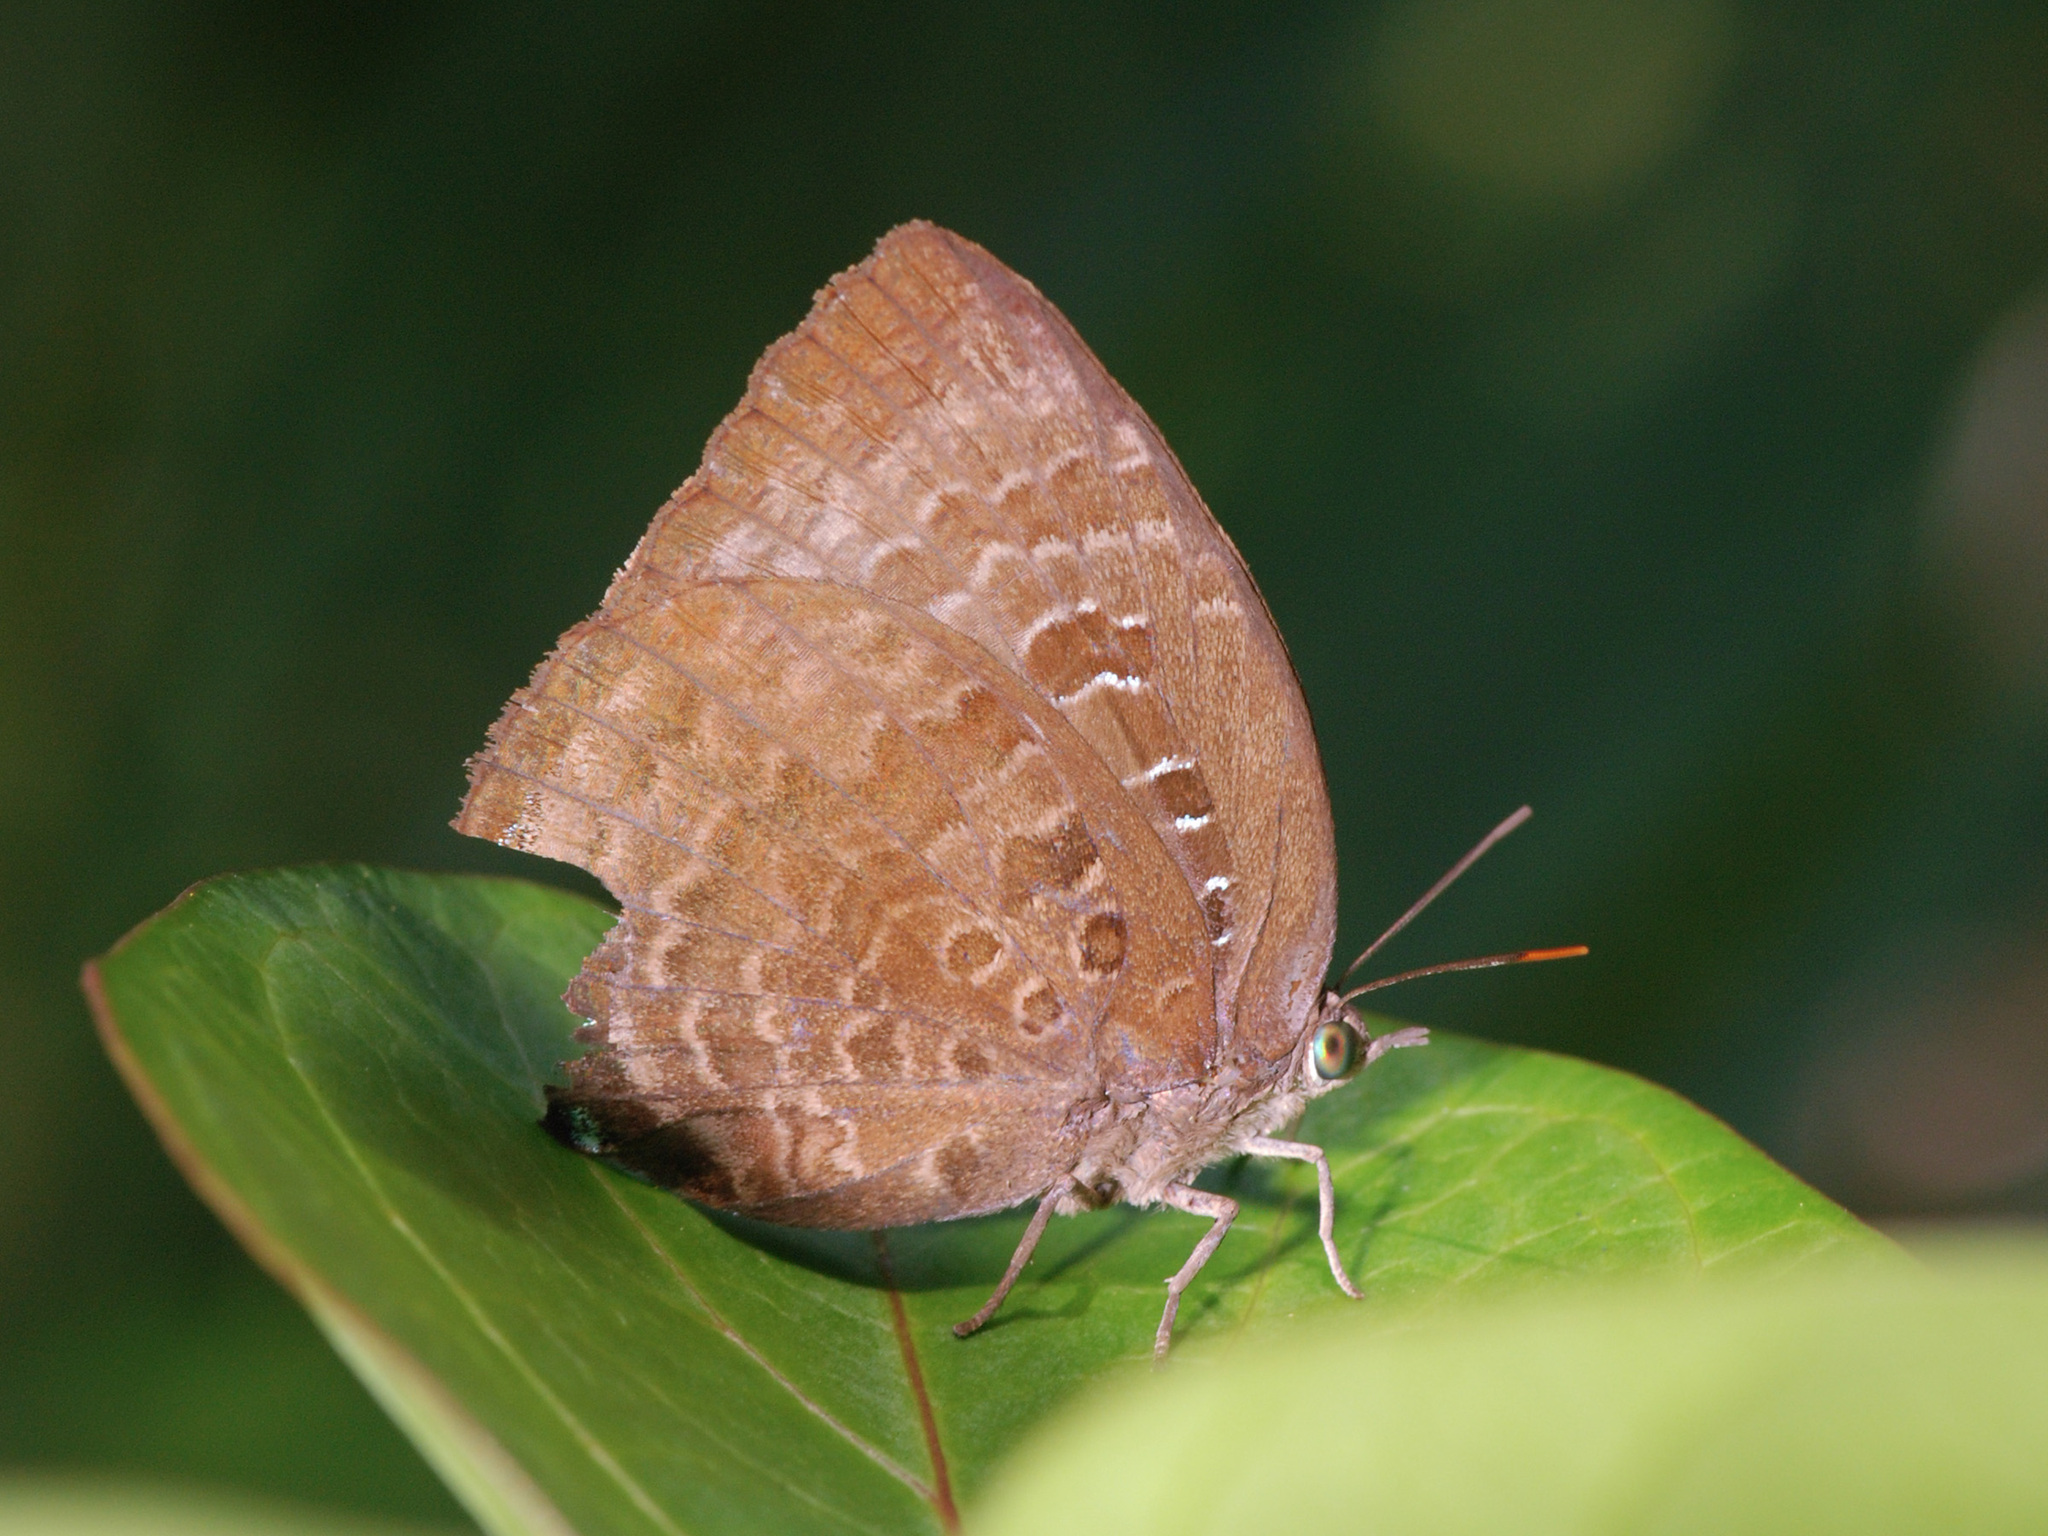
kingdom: Animalia
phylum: Arthropoda
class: Insecta
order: Lepidoptera
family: Lycaenidae
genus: Arhopala
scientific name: Arhopala centaurus
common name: Dull oak-blue
